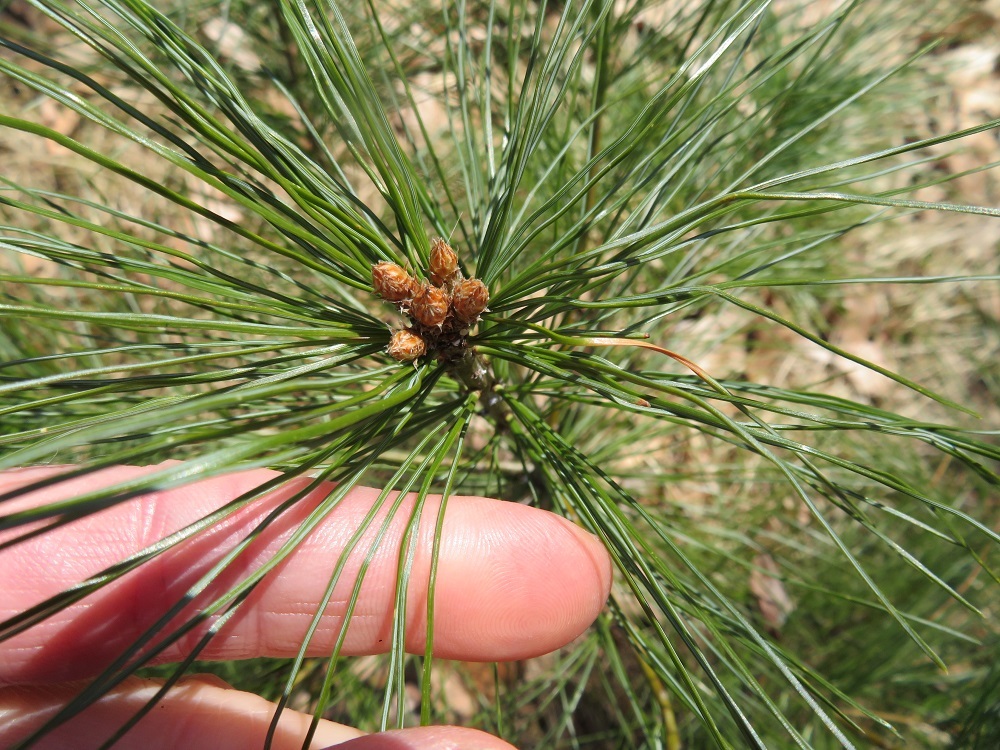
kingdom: Plantae
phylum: Tracheophyta
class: Pinopsida
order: Pinales
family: Pinaceae
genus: Pinus
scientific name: Pinus strobus
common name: Weymouth pine
